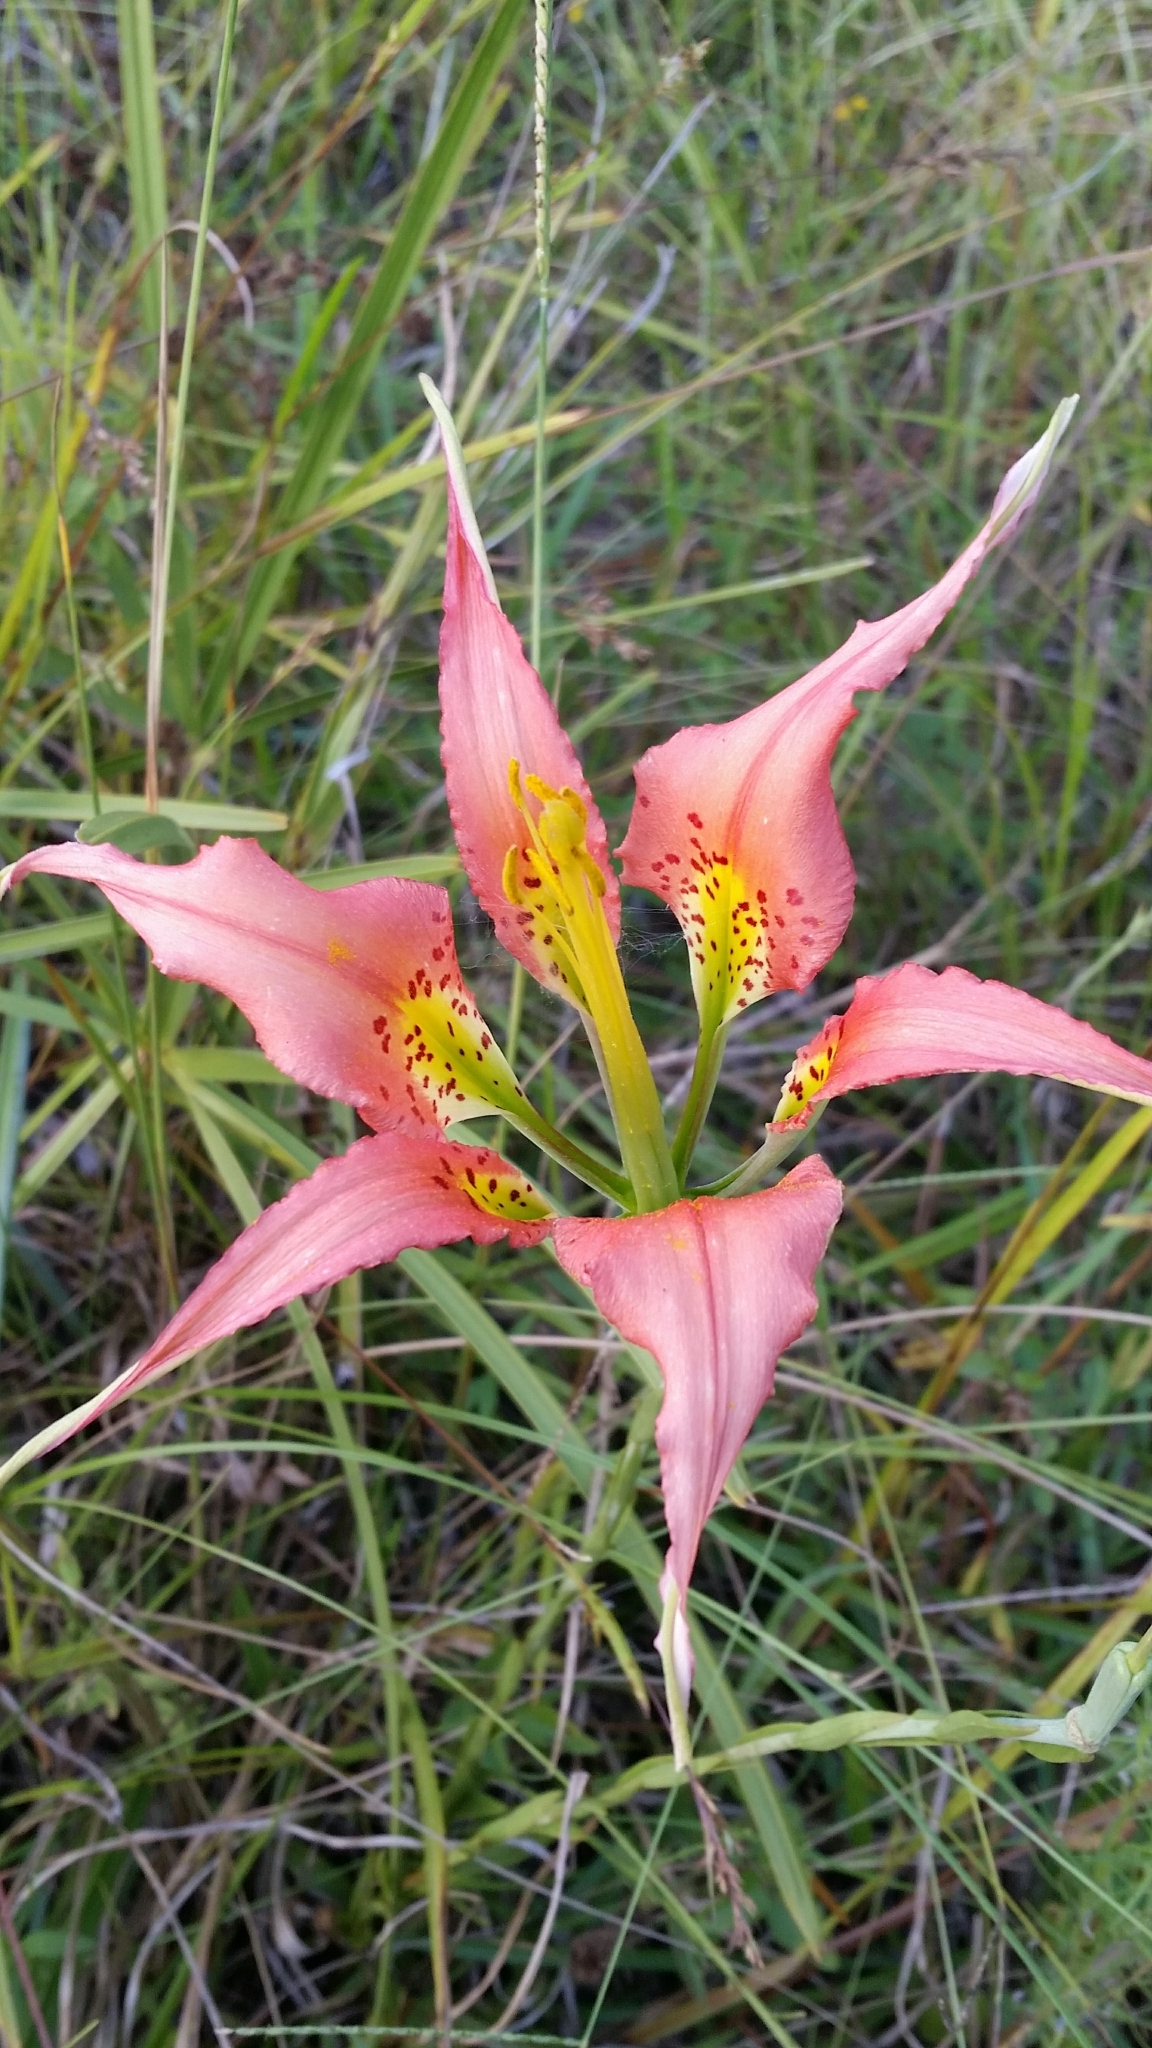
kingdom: Plantae
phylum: Tracheophyta
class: Liliopsida
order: Liliales
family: Liliaceae
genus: Lilium
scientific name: Lilium catesbaei
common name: Catesby's lily
